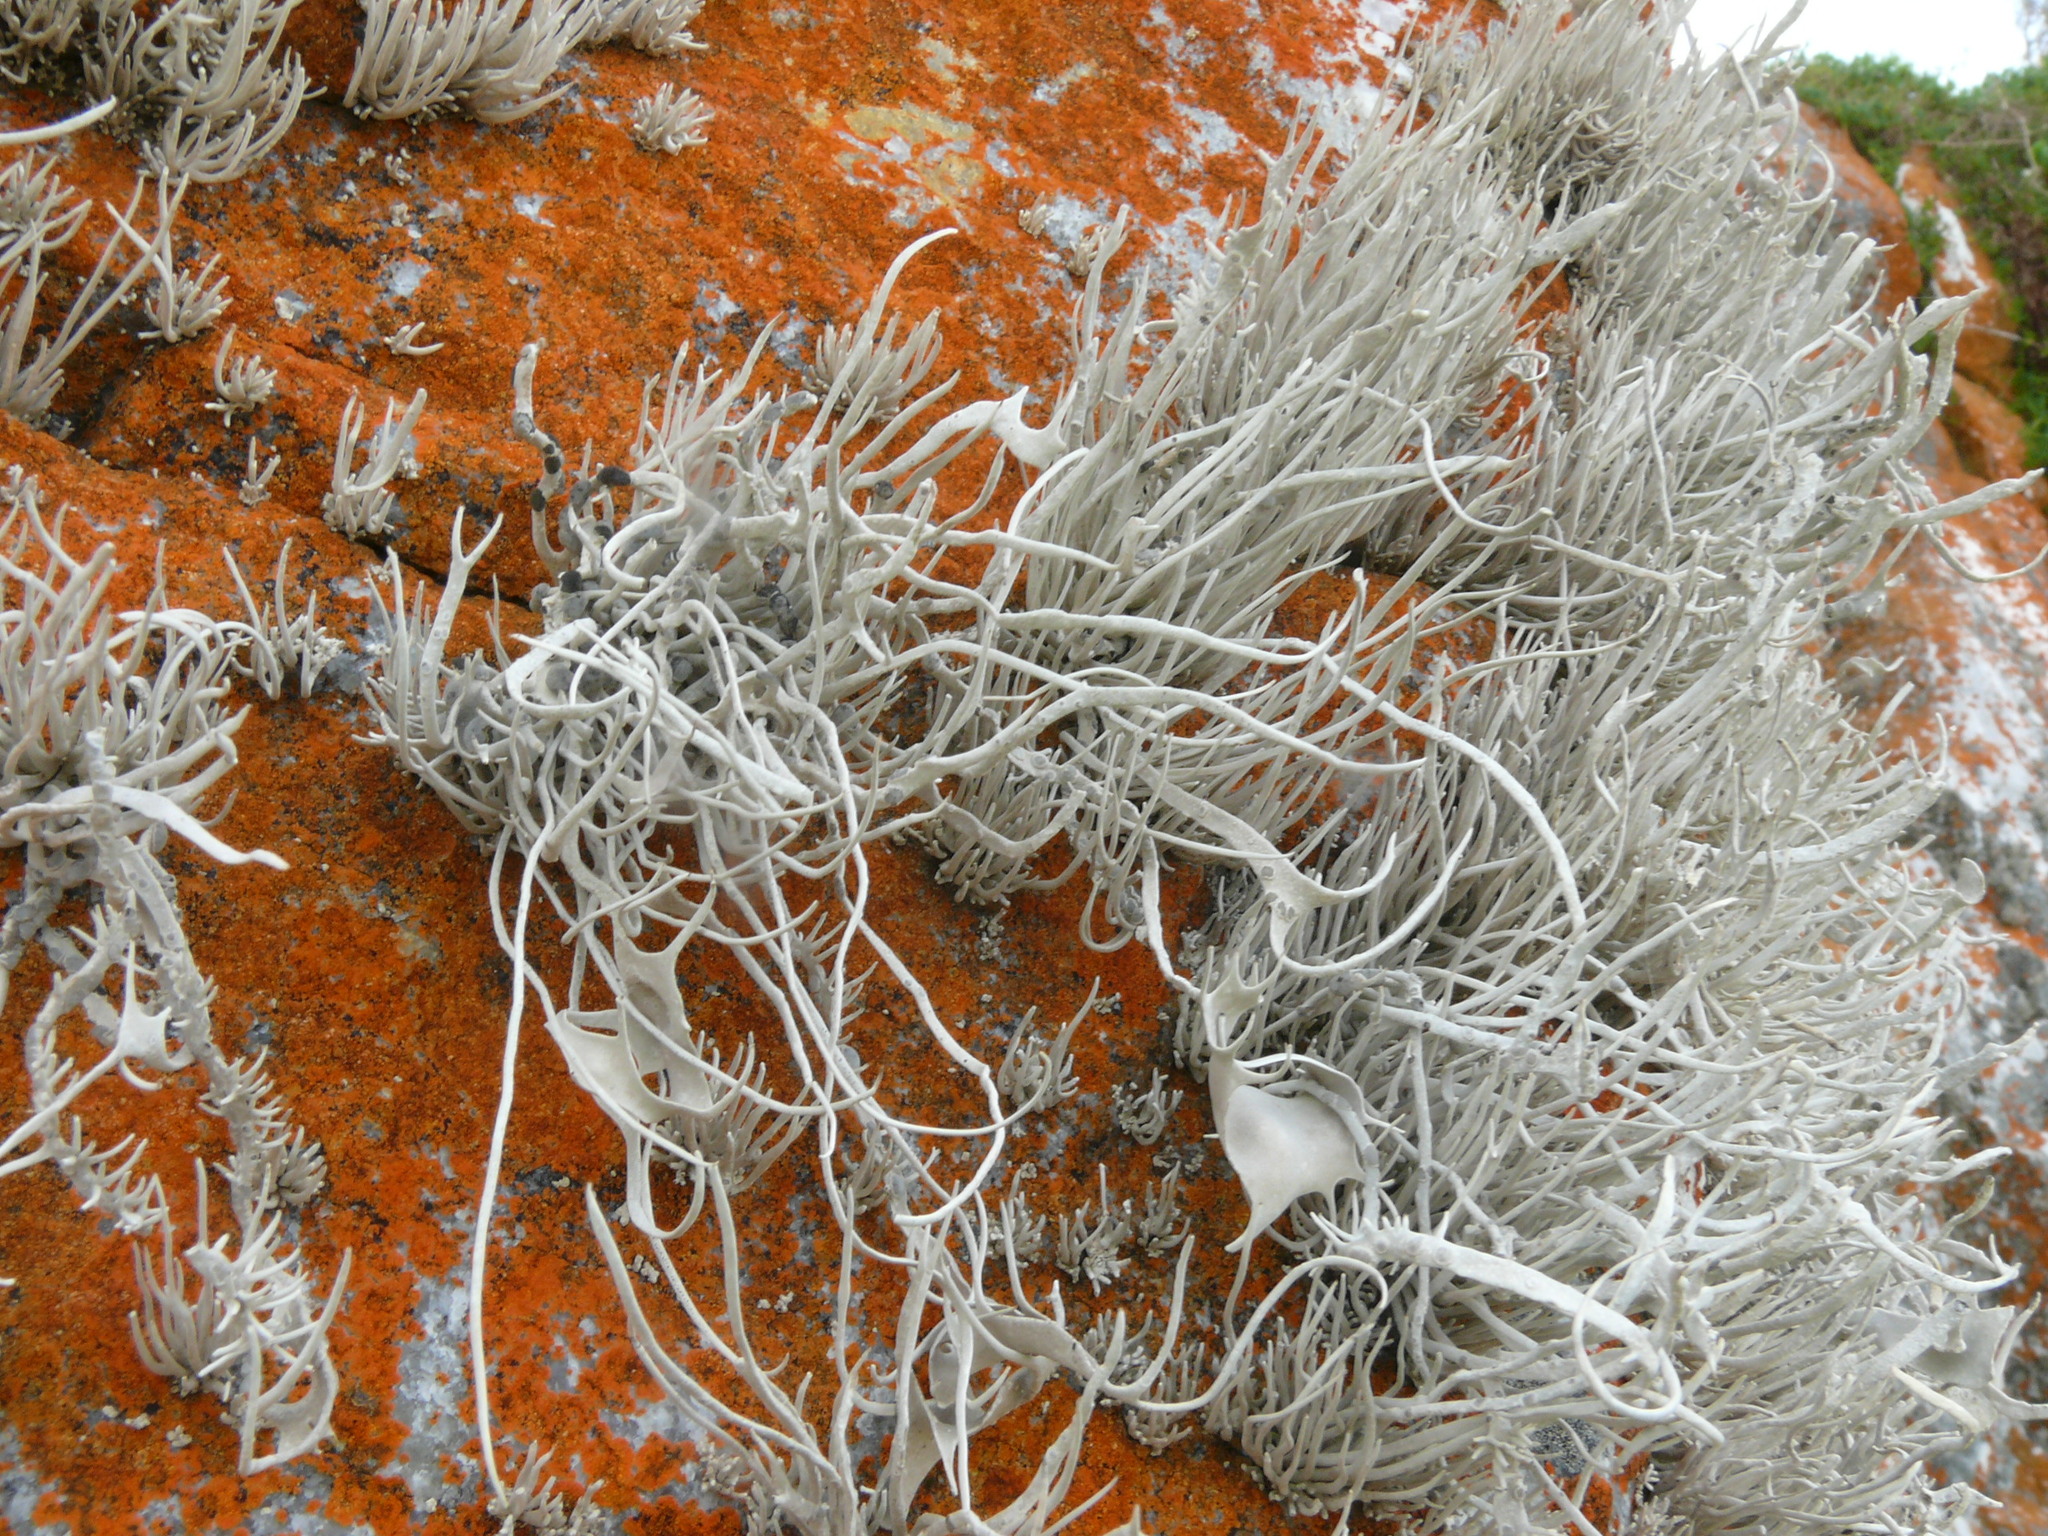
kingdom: Fungi
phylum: Ascomycota
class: Arthoniomycetes
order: Arthoniales
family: Roccellaceae
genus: Roccellina
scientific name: Roccellina hypomecha
